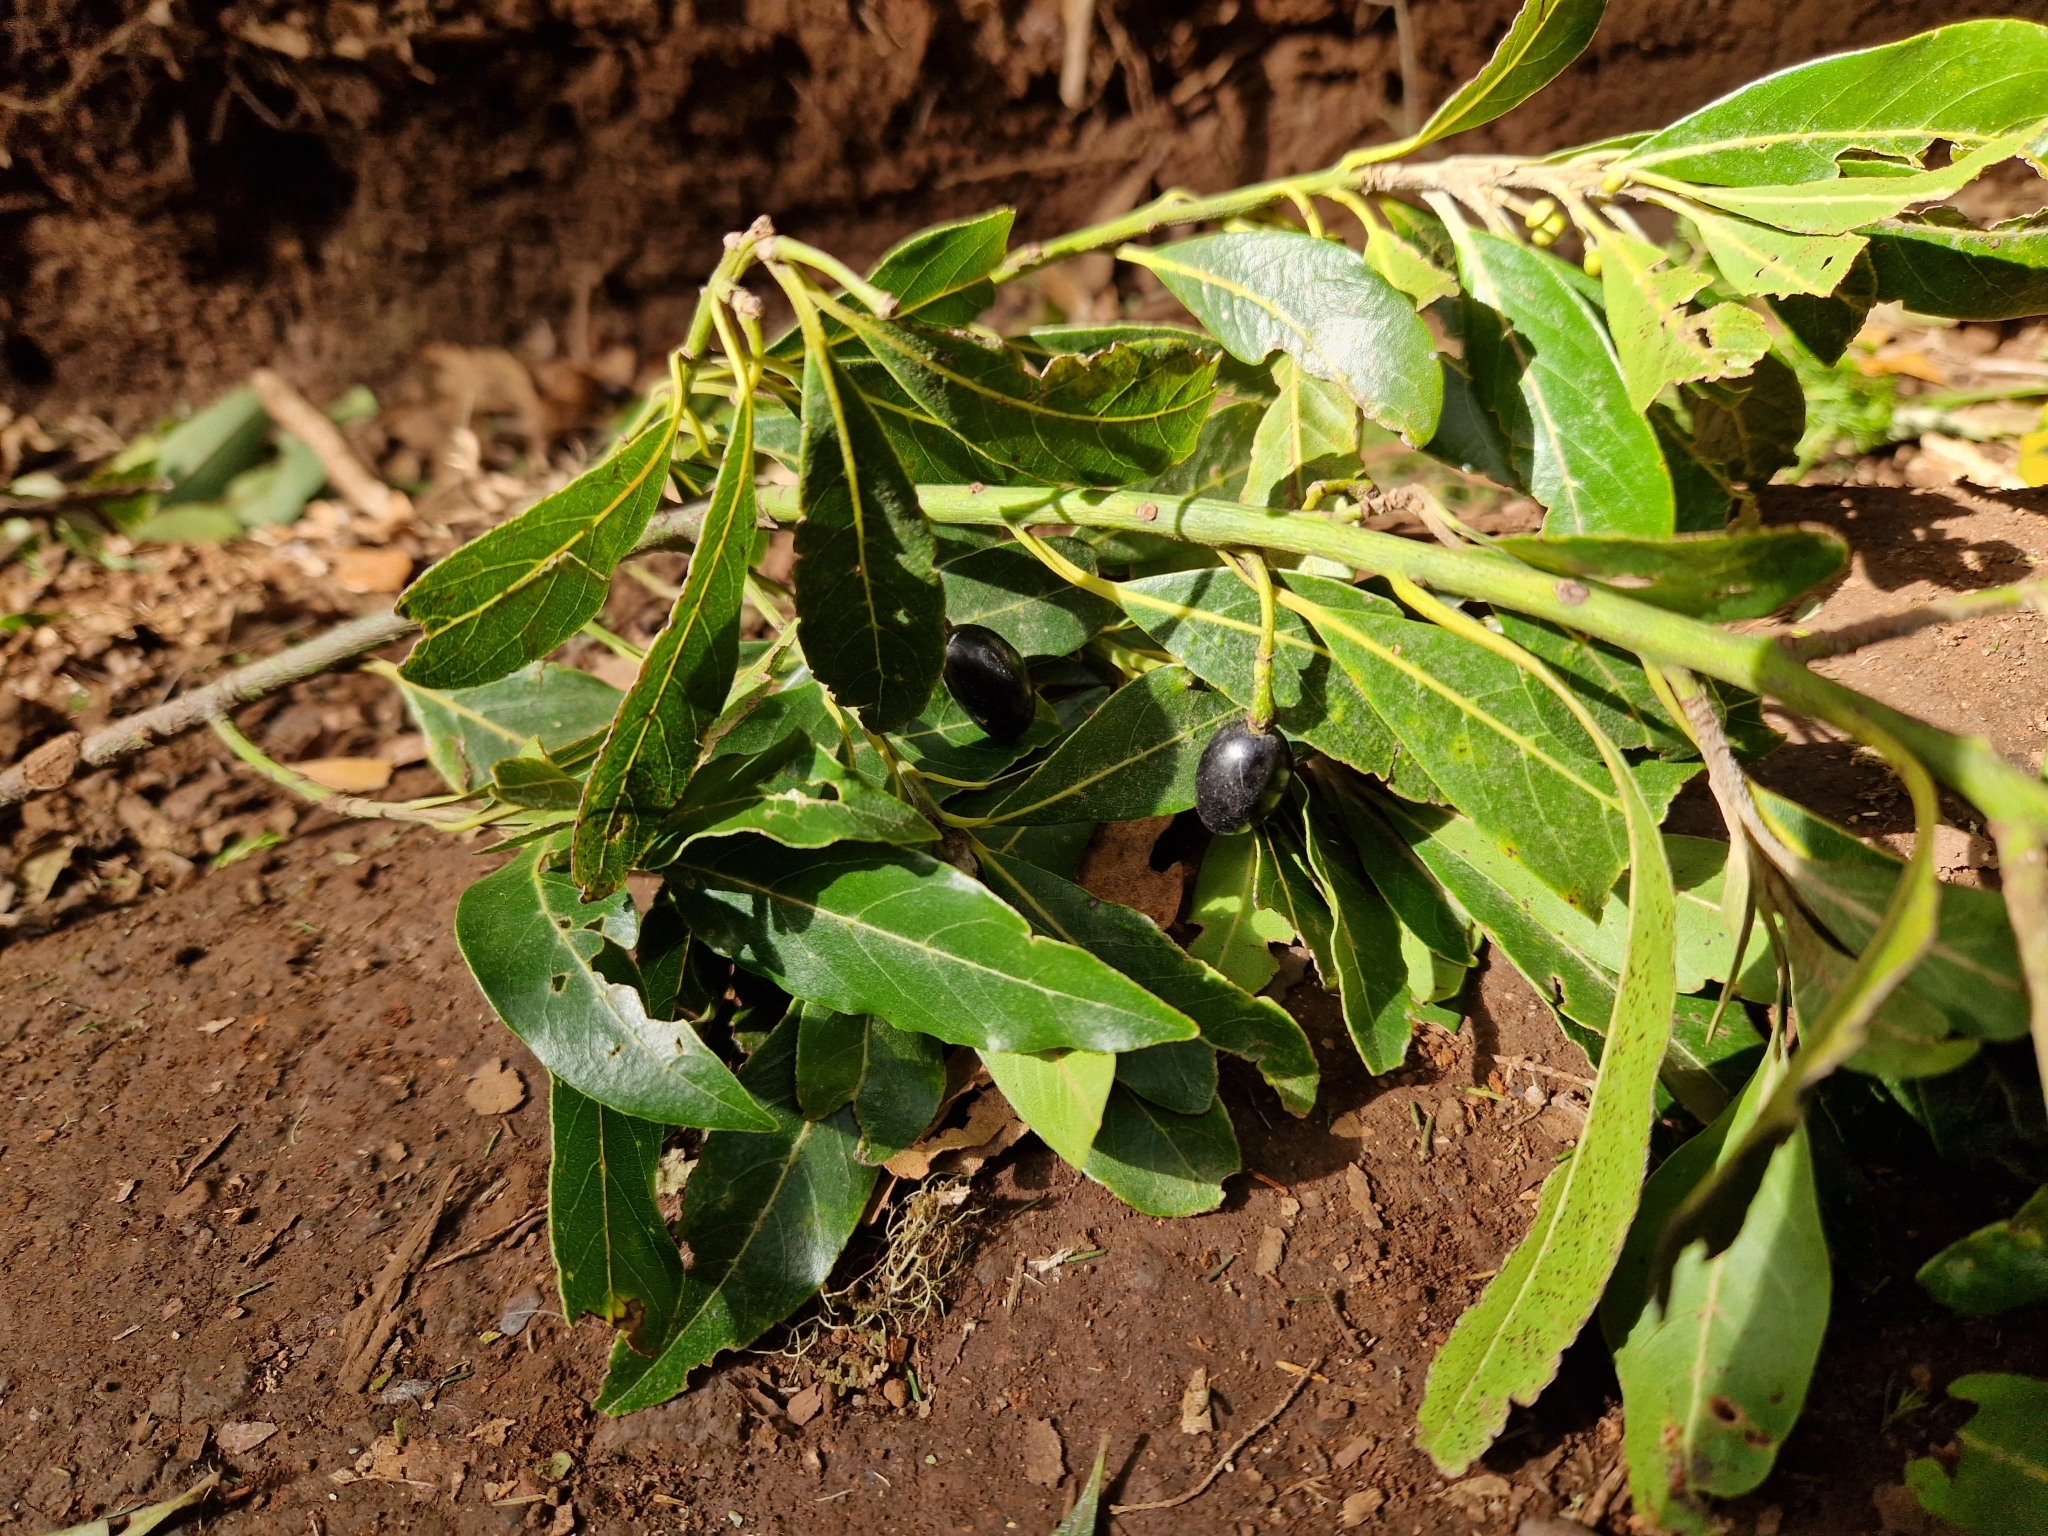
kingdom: Plantae
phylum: Tracheophyta
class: Magnoliopsida
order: Laurales
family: Lauraceae
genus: Laurus
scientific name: Laurus novocanariensis
